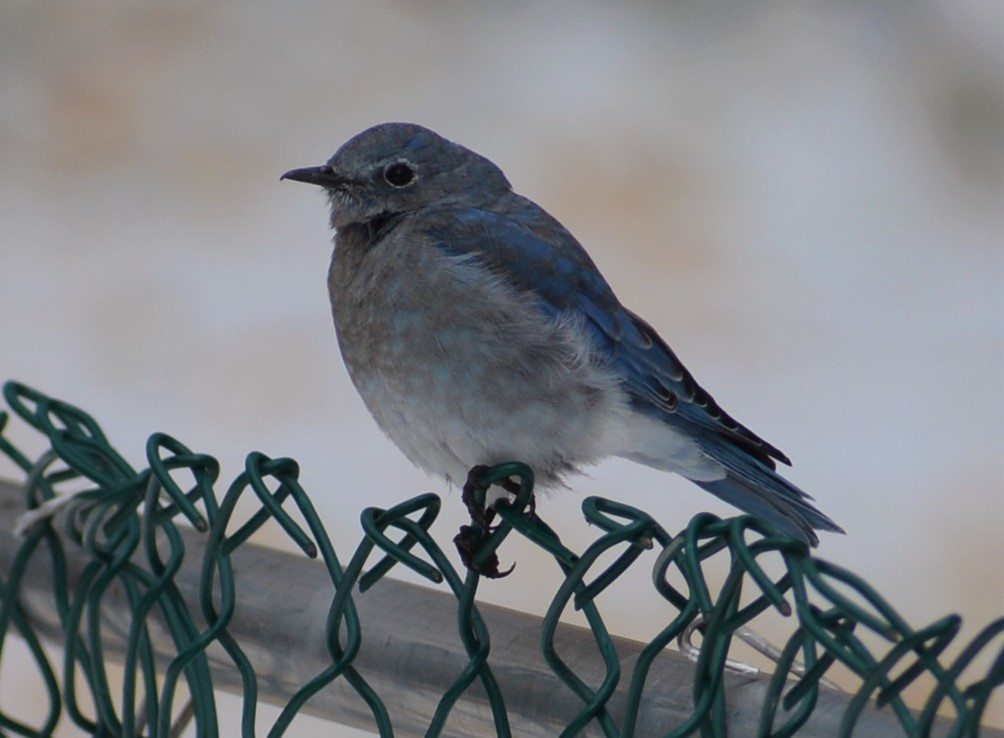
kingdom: Animalia
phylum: Chordata
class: Aves
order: Passeriformes
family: Turdidae
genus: Sialia
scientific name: Sialia currucoides
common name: Mountain bluebird
